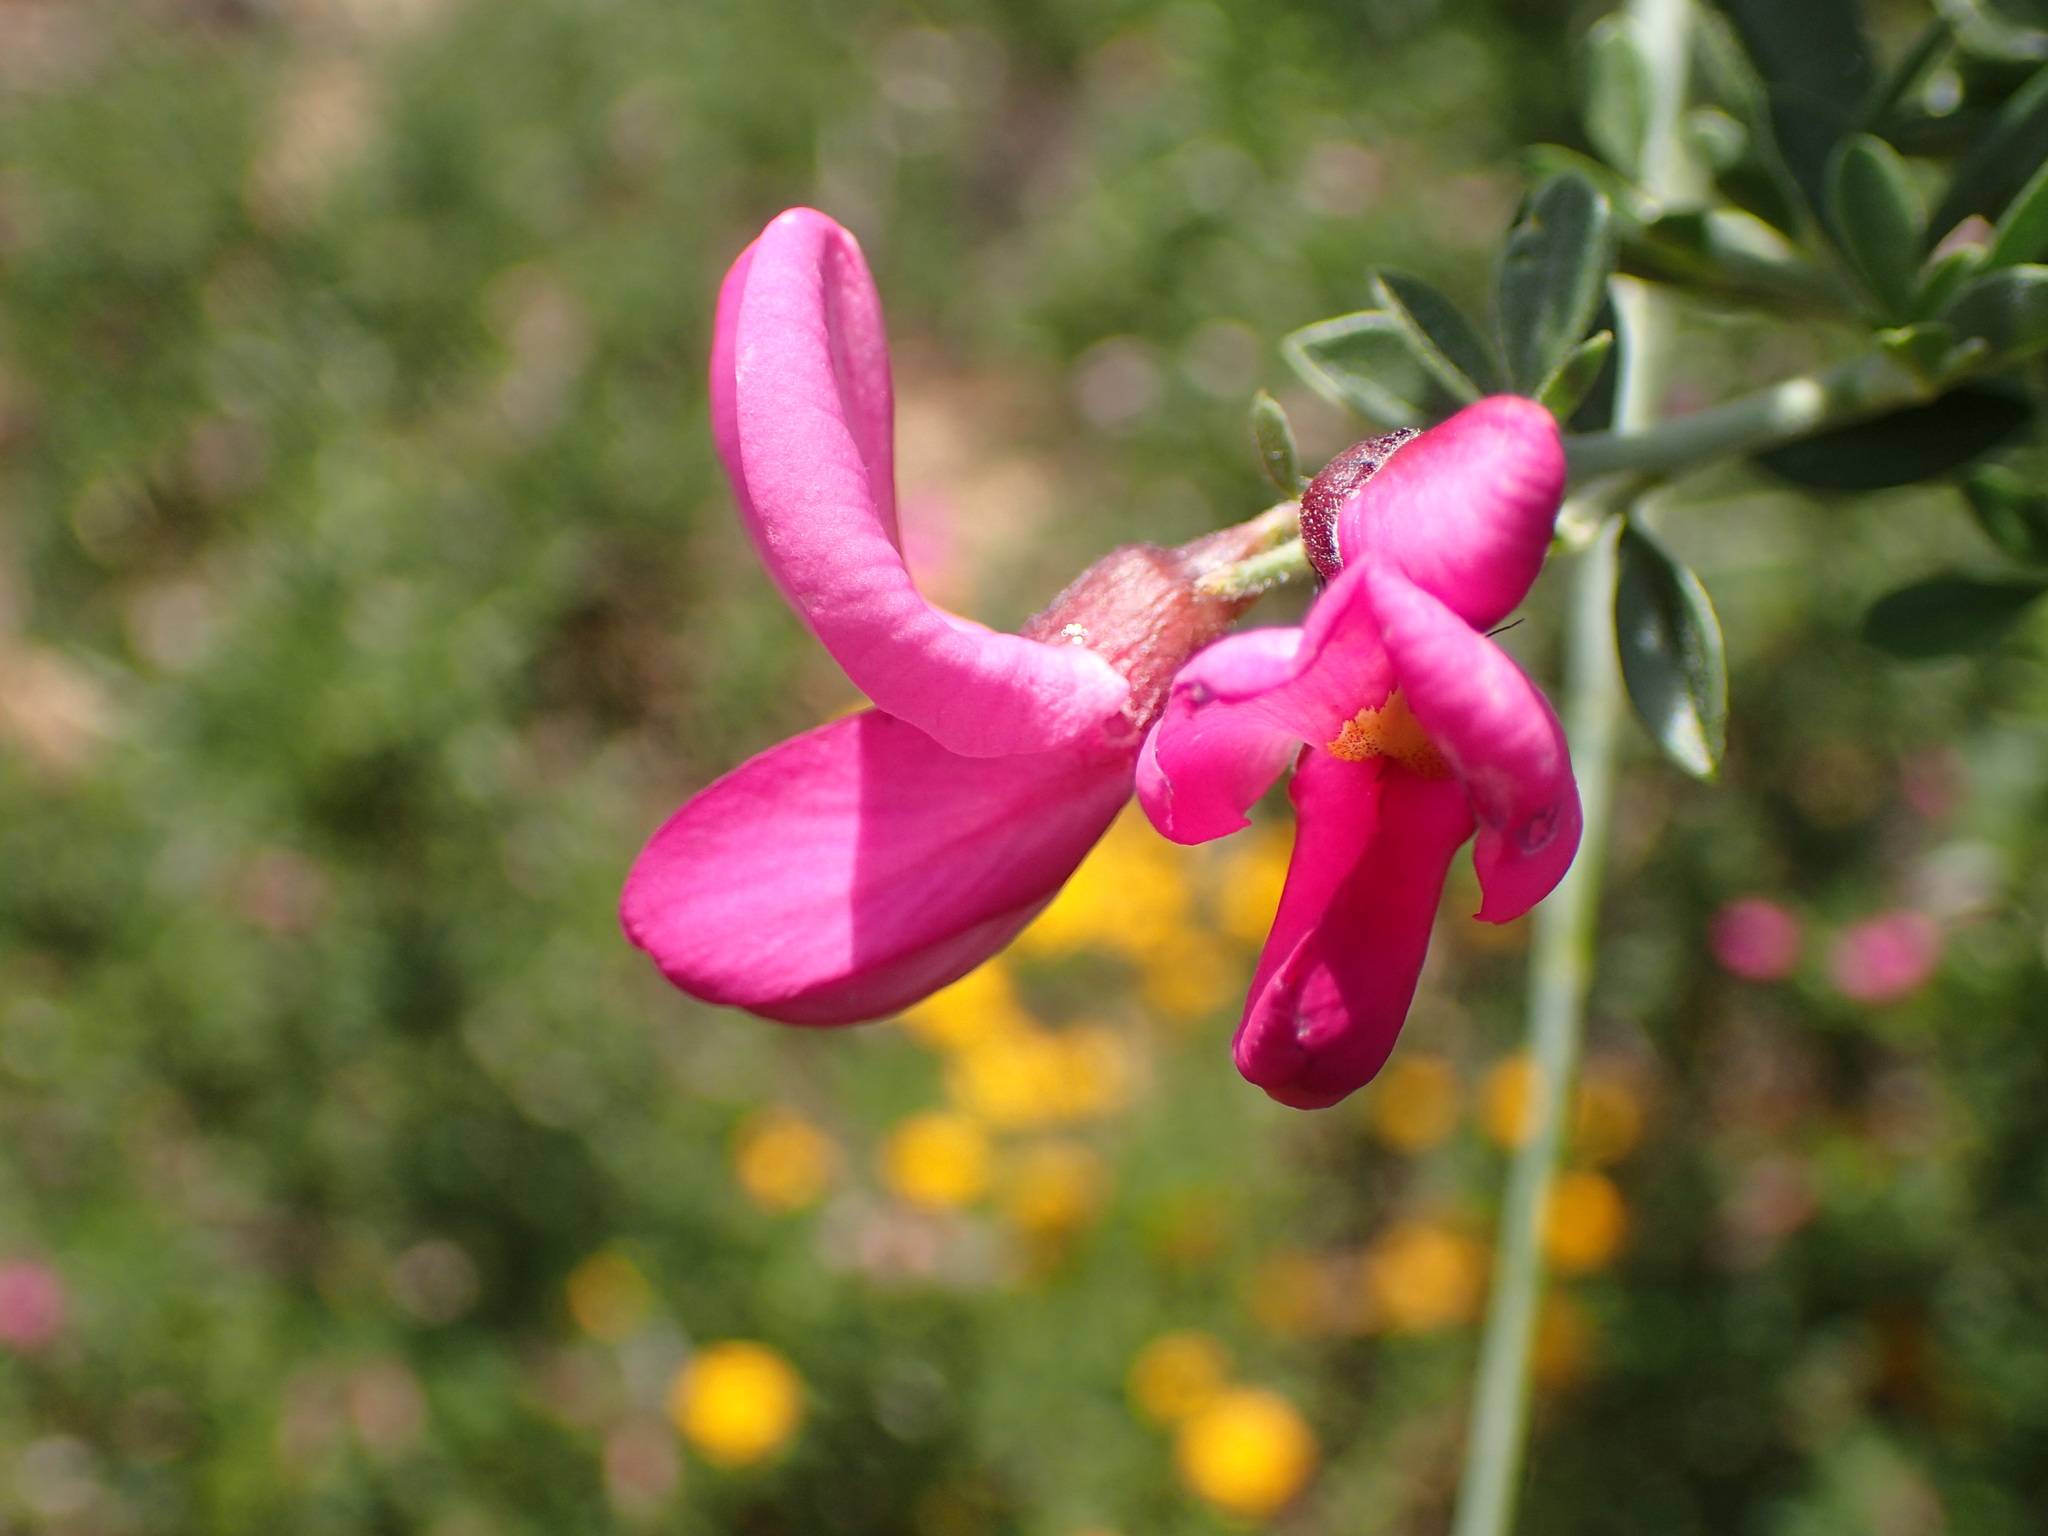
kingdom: Plantae
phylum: Tracheophyta
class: Magnoliopsida
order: Fabales
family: Fabaceae
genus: Pickeringia
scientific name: Pickeringia montana
